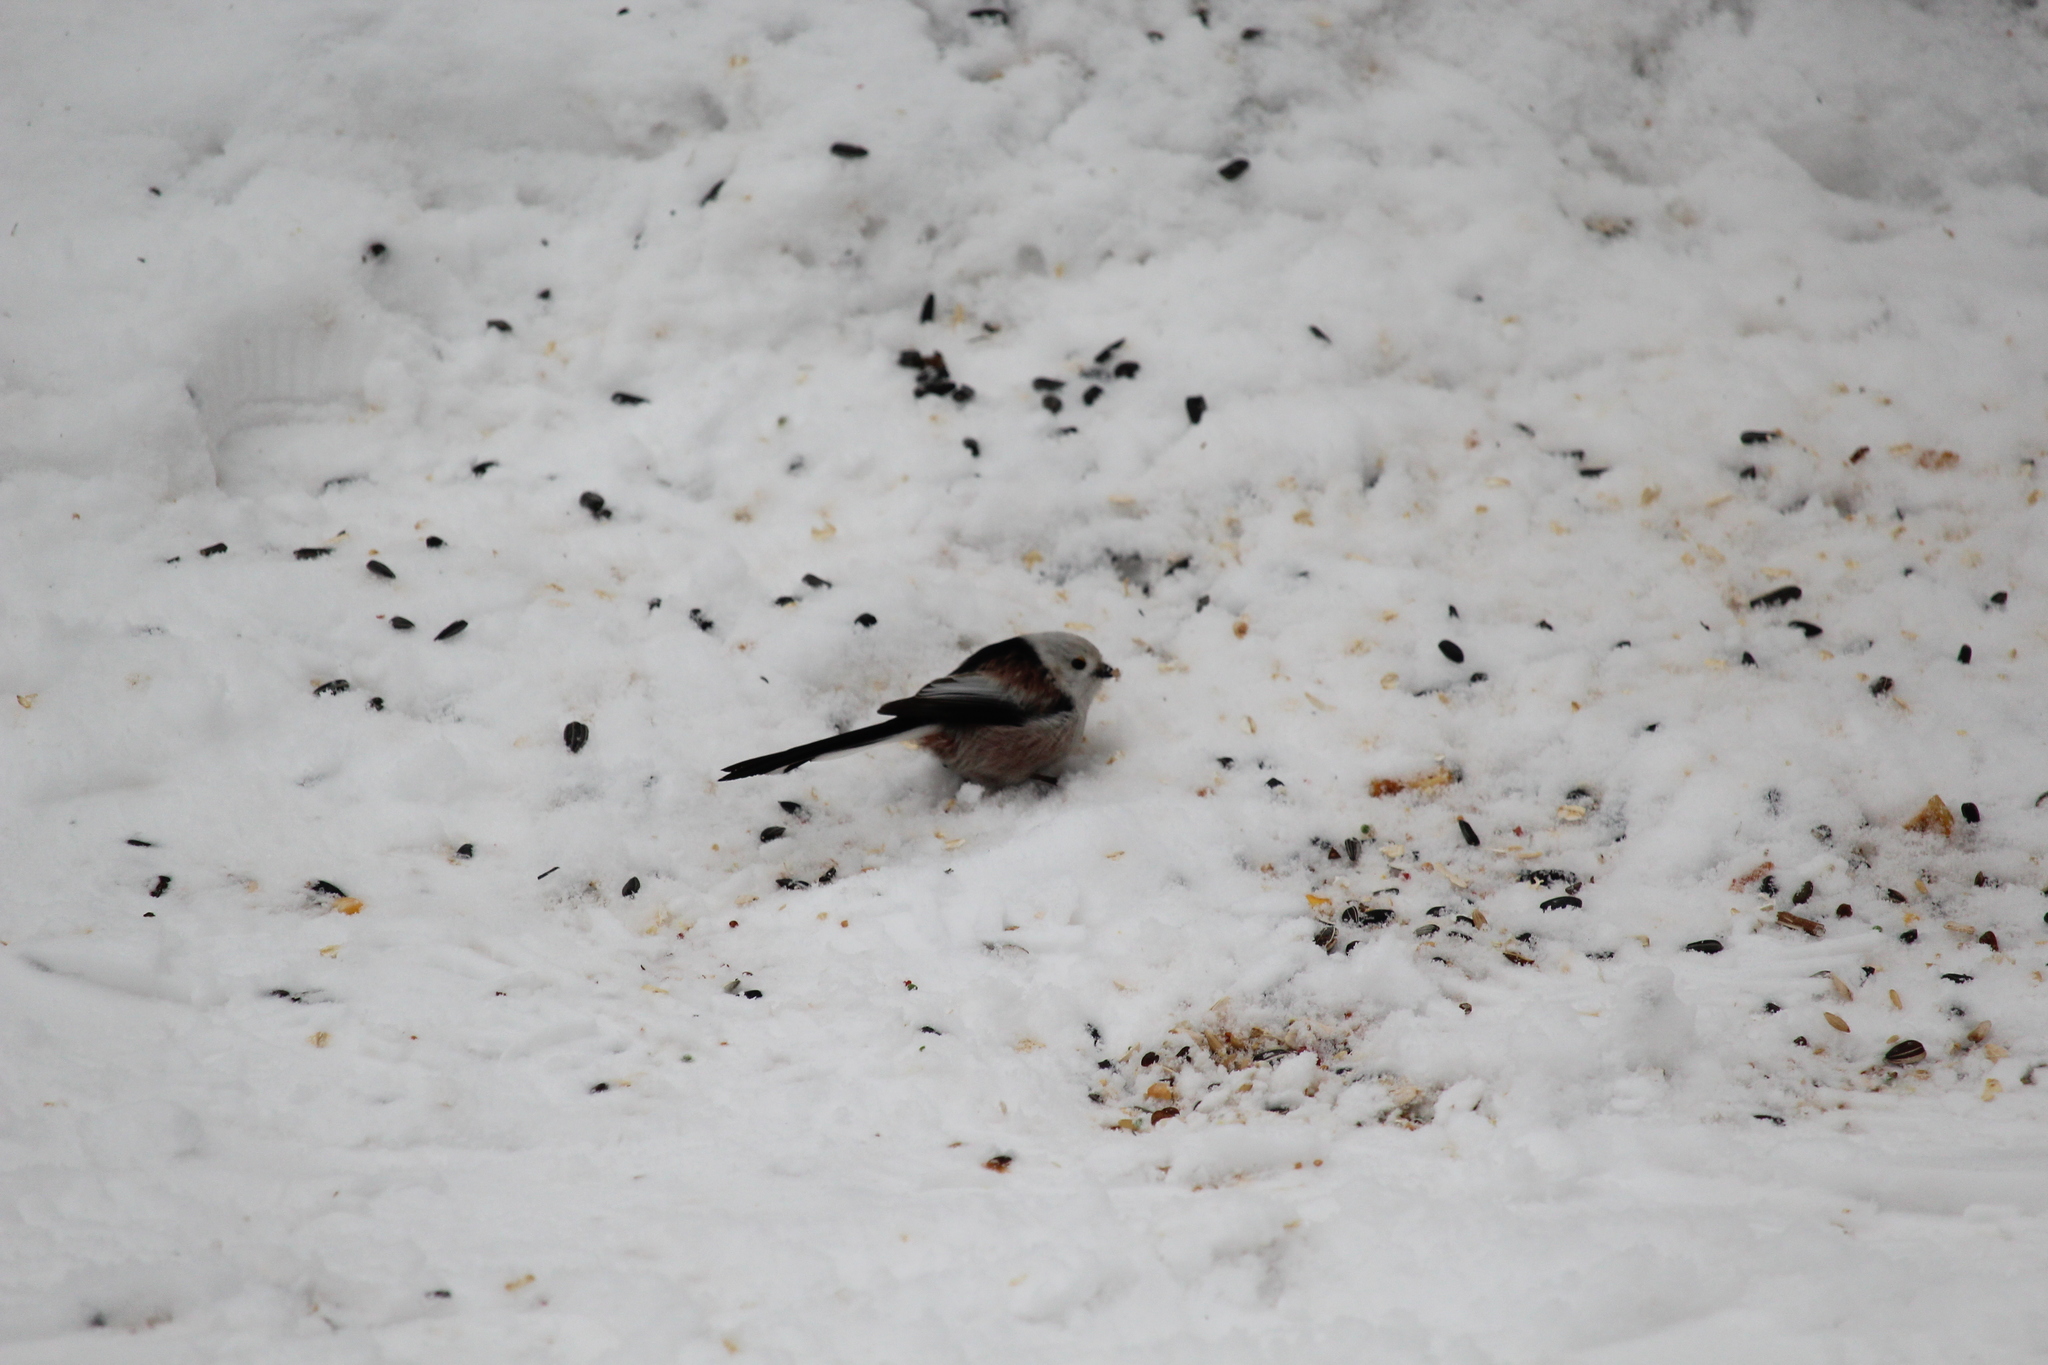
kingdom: Animalia
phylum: Chordata
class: Aves
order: Passeriformes
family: Aegithalidae
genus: Aegithalos
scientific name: Aegithalos caudatus
